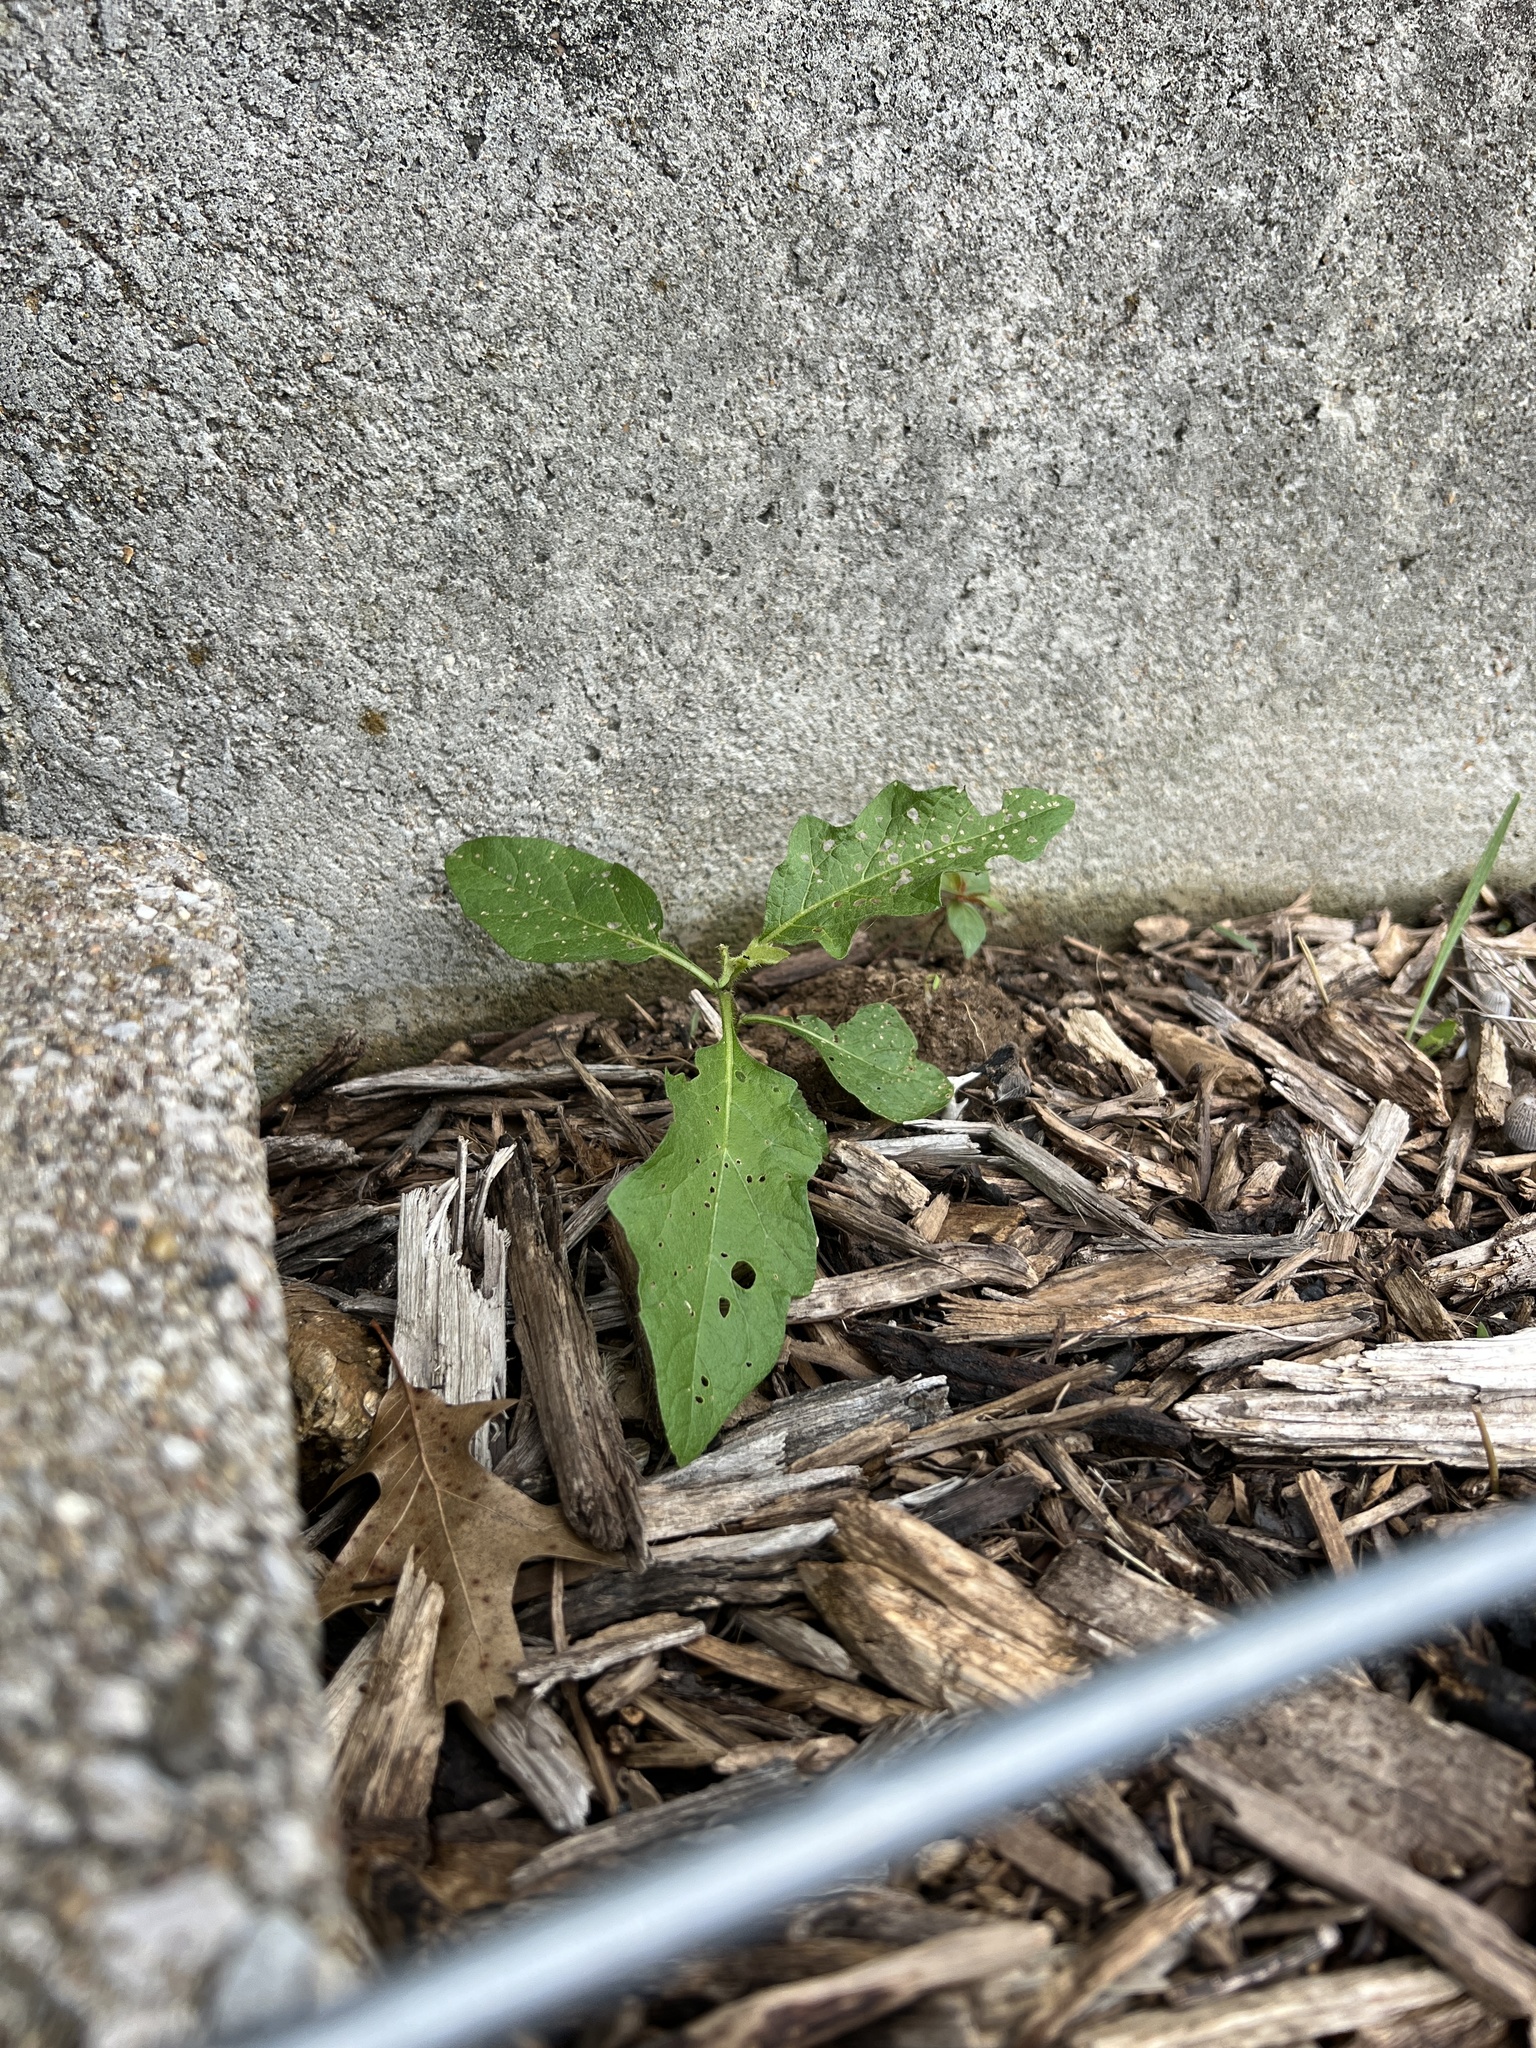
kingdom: Plantae
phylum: Tracheophyta
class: Magnoliopsida
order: Solanales
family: Solanaceae
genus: Solanum
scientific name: Solanum carolinense
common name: Horse-nettle
